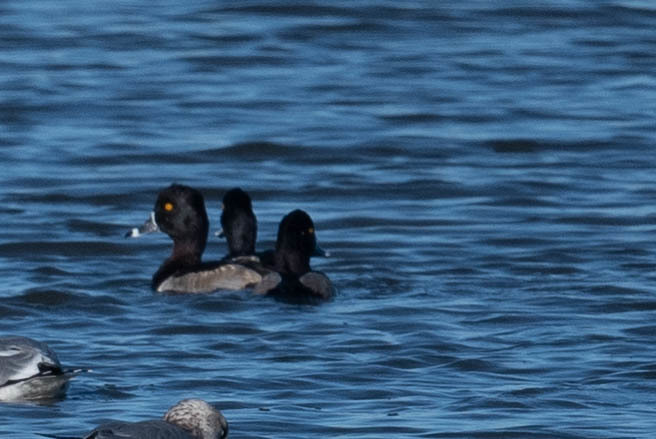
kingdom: Animalia
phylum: Chordata
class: Aves
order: Anseriformes
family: Anatidae
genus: Aythya
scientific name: Aythya collaris
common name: Ring-necked duck
